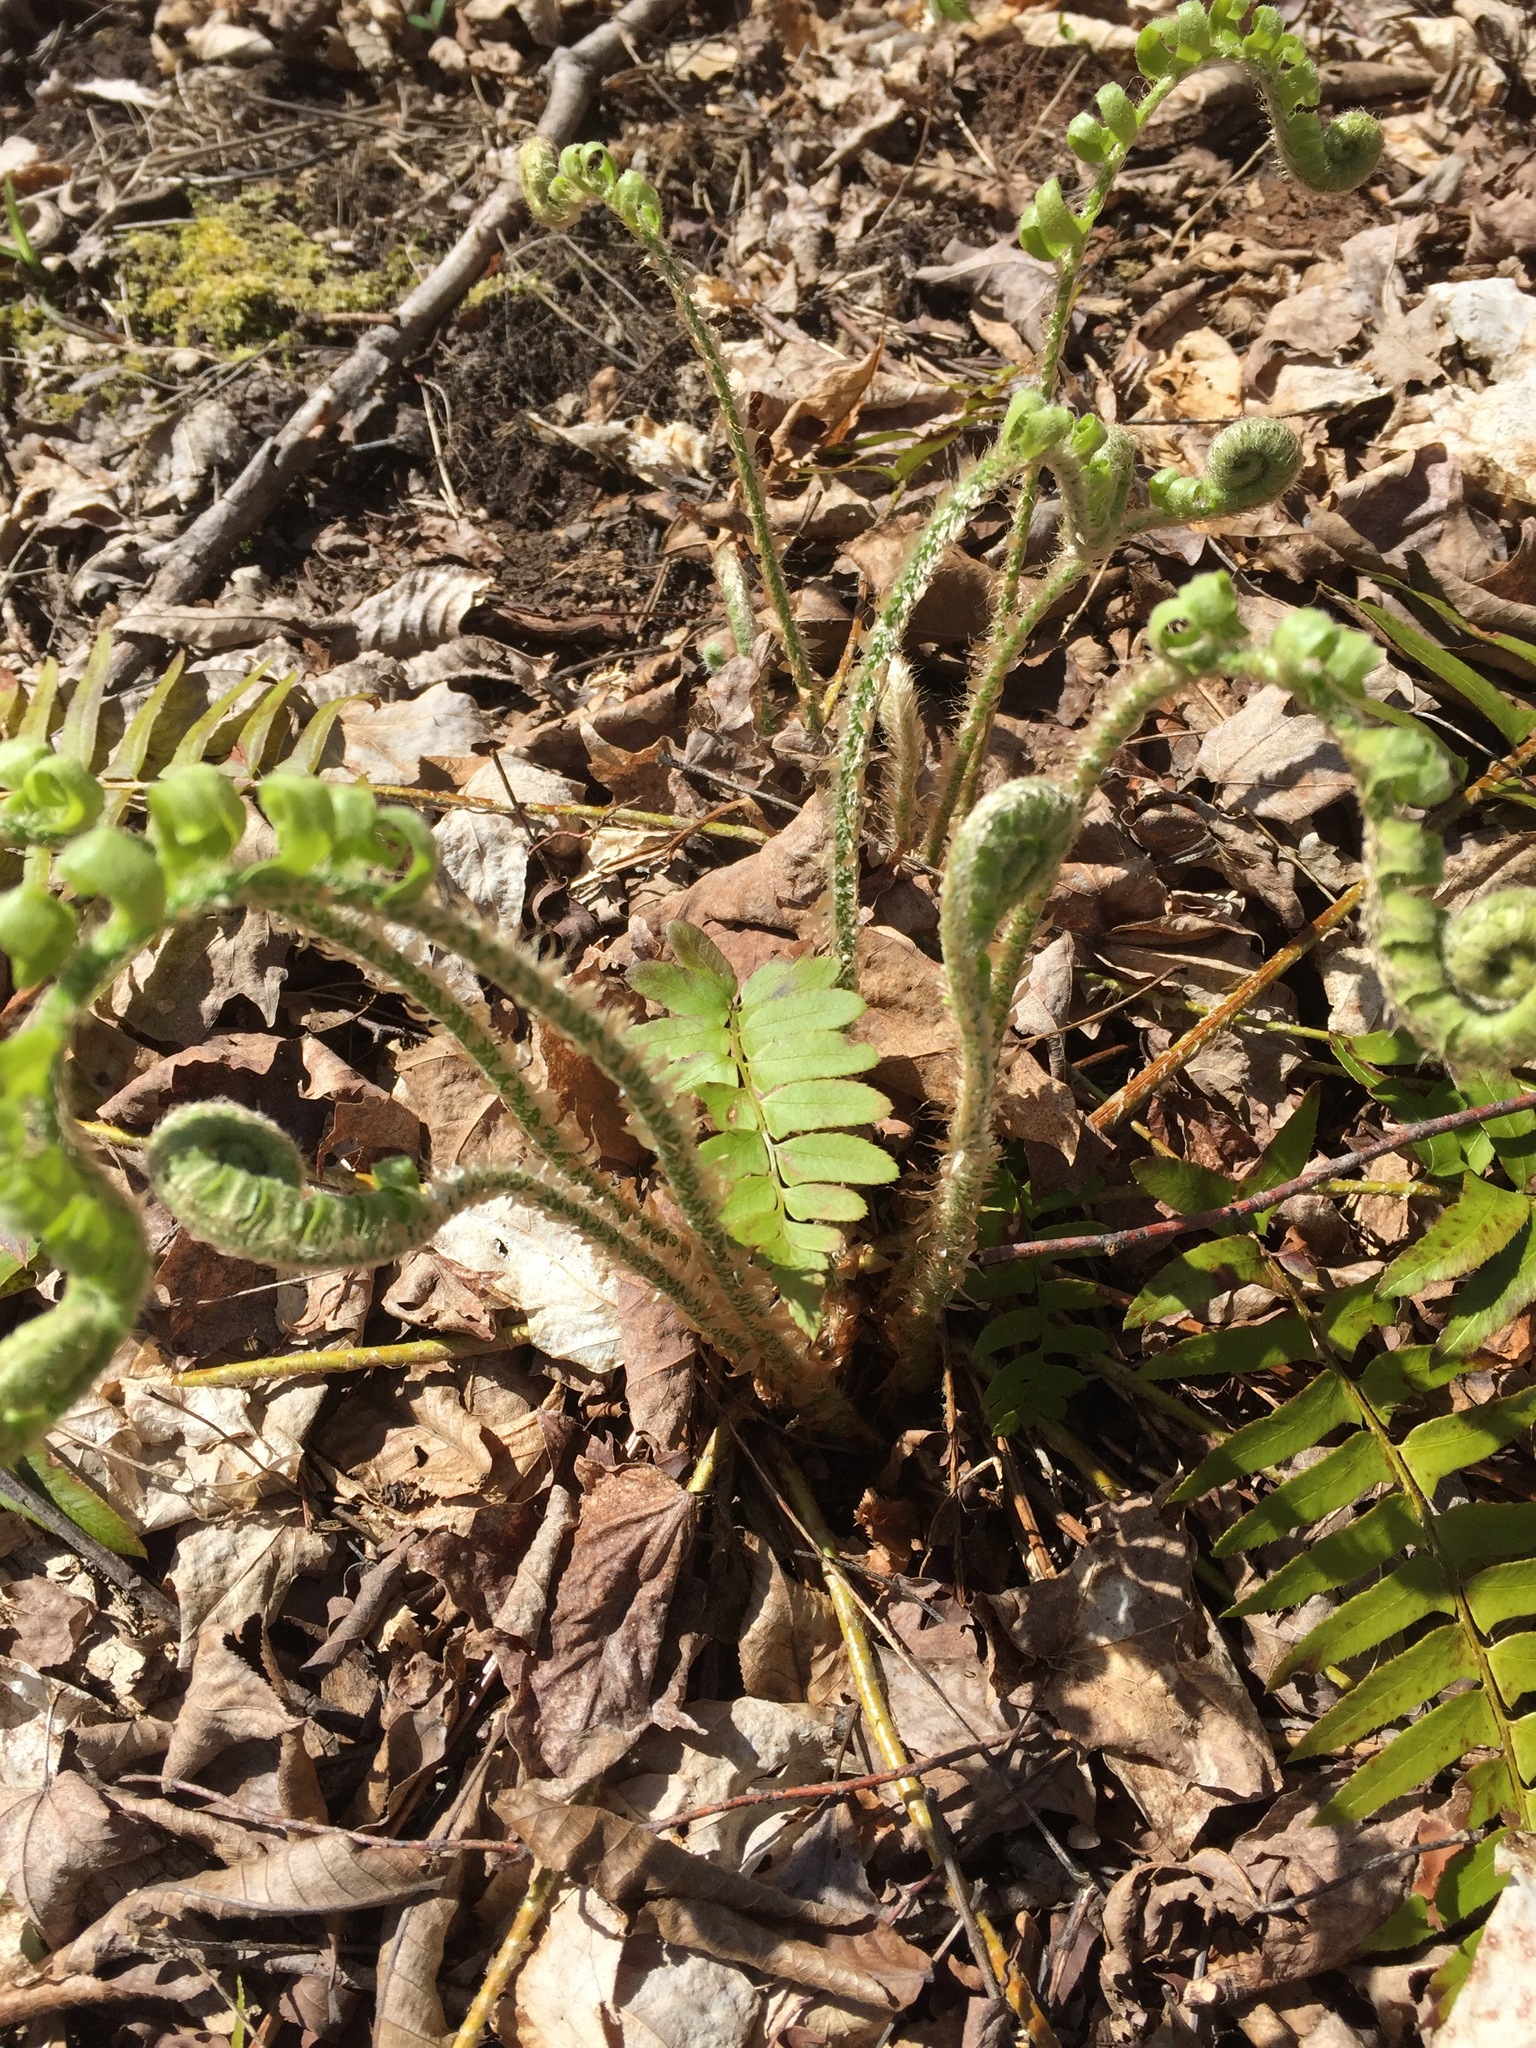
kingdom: Plantae
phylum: Tracheophyta
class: Polypodiopsida
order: Polypodiales
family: Dryopteridaceae
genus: Polystichum
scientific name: Polystichum acrostichoides
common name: Christmas fern
